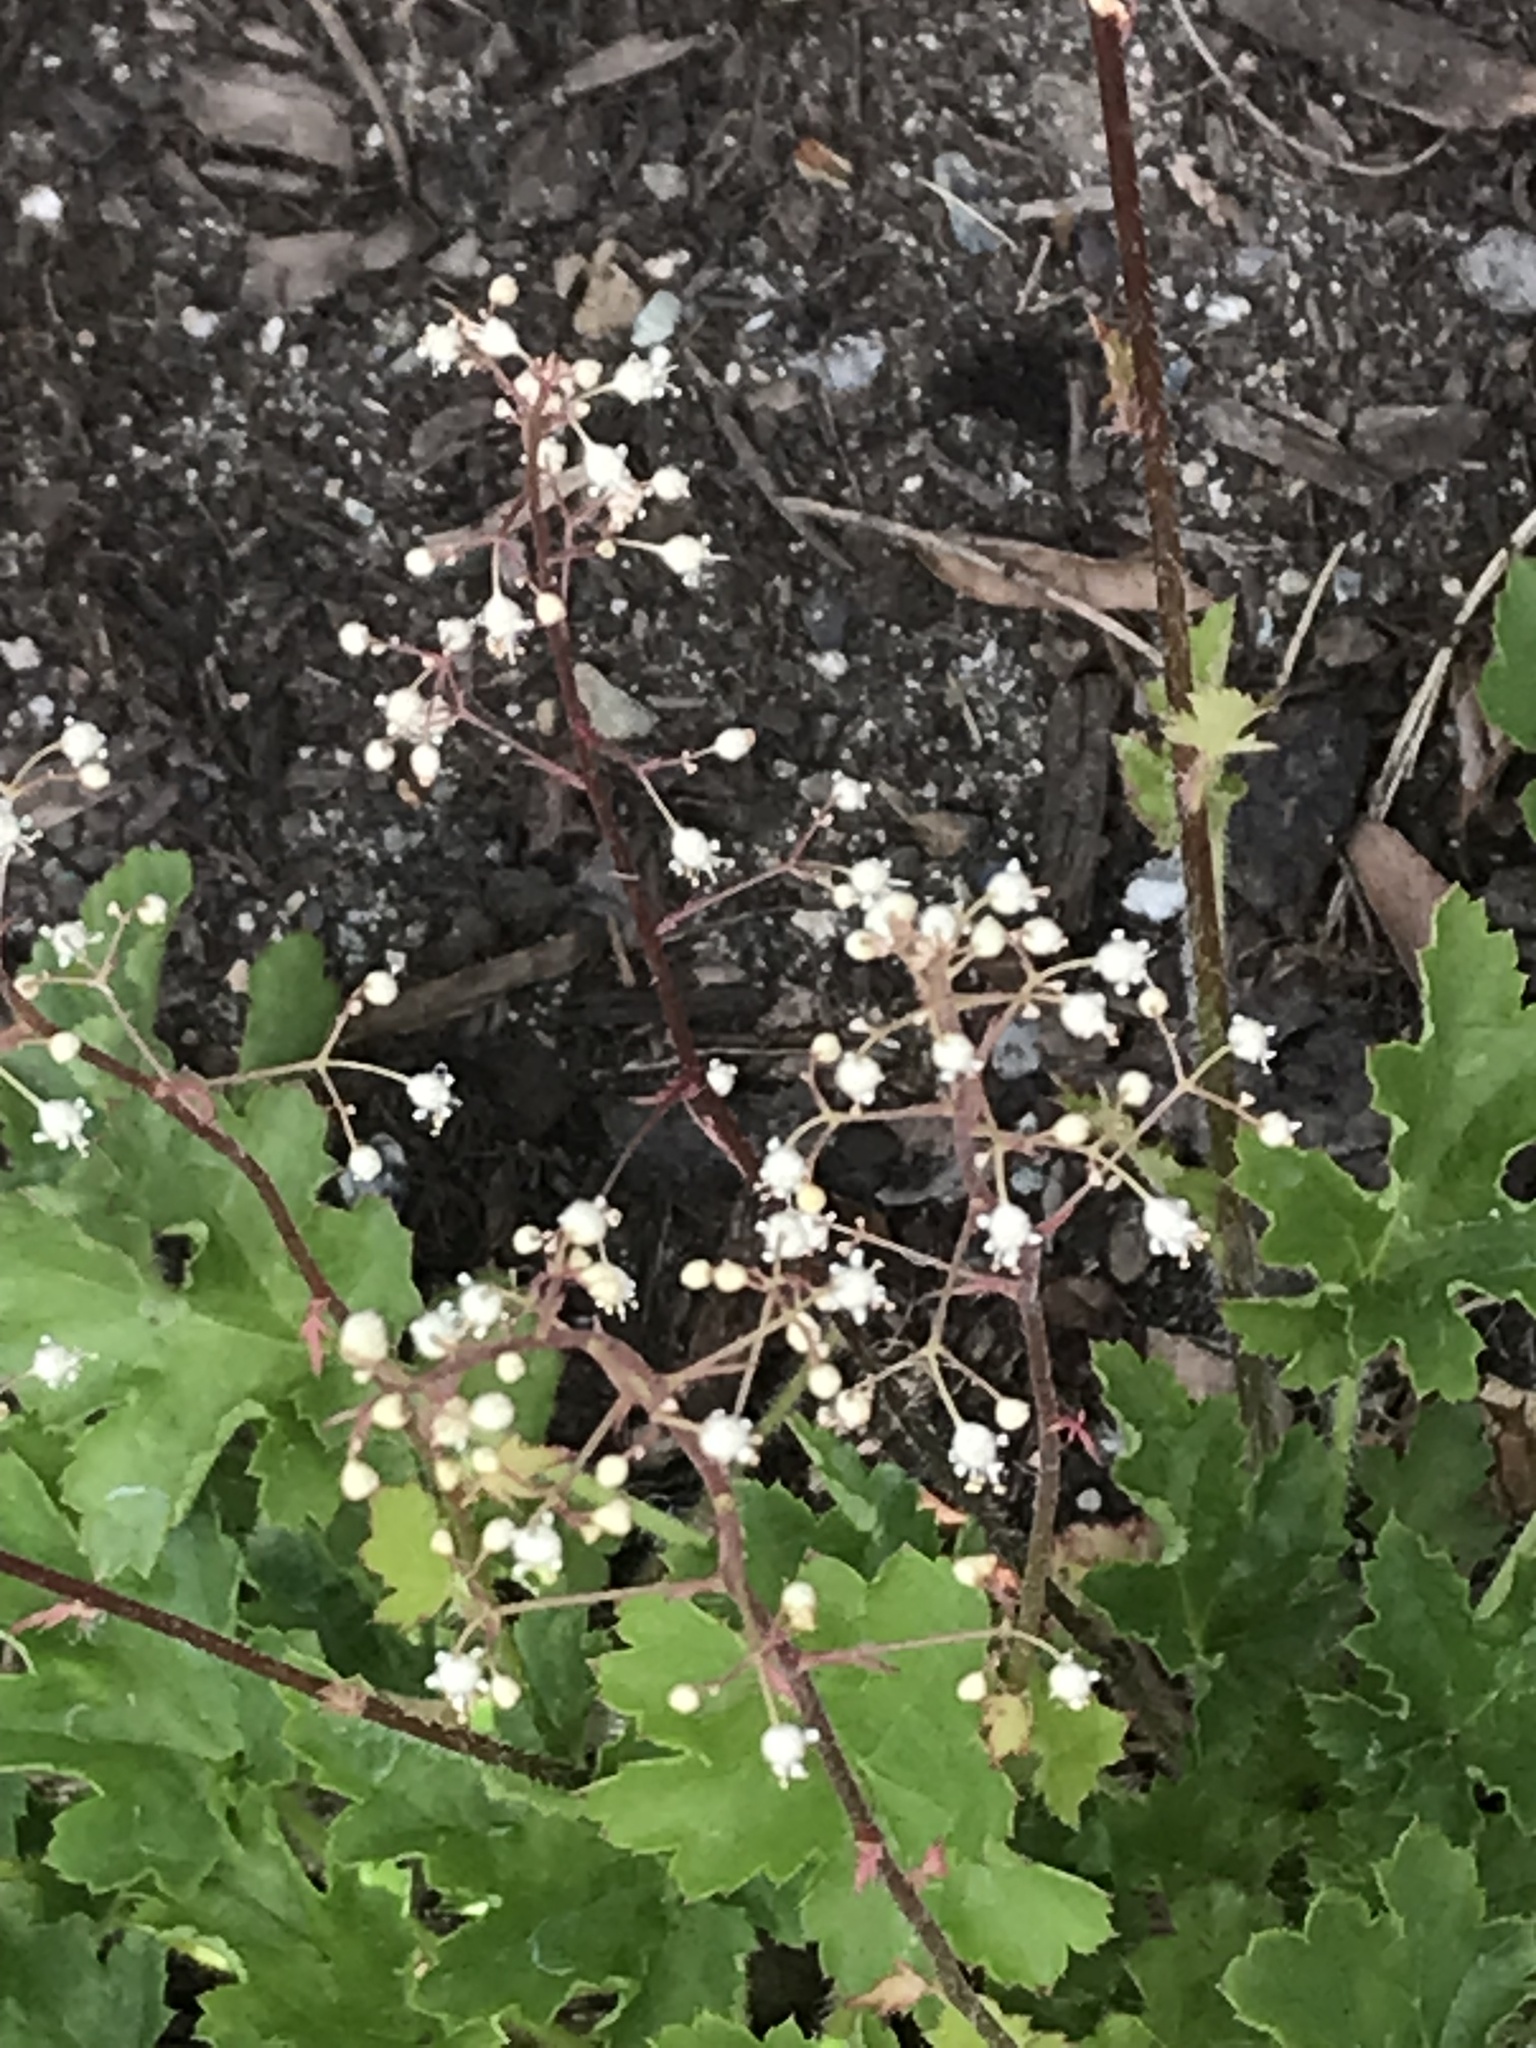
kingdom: Plantae
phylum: Tracheophyta
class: Magnoliopsida
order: Saxifragales
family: Saxifragaceae
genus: Heuchera
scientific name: Heuchera micrantha
